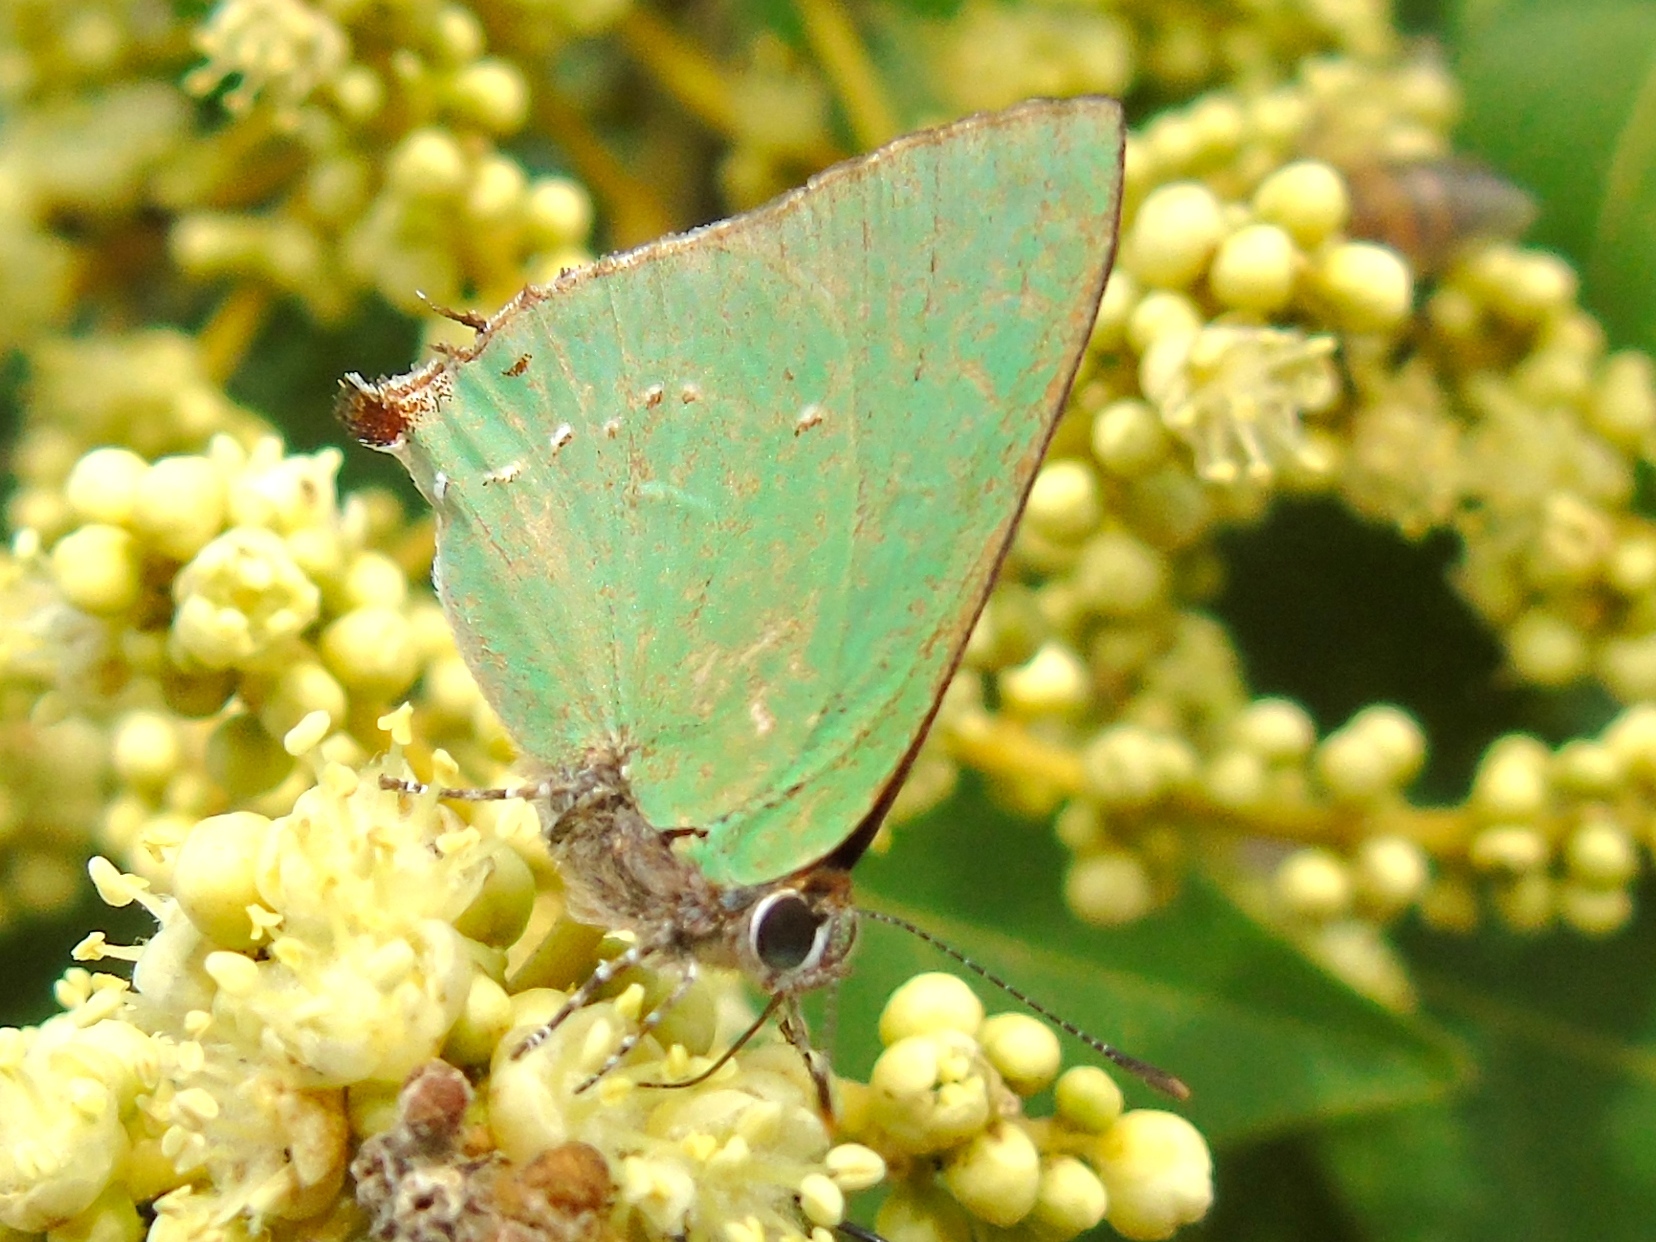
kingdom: Animalia
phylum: Arthropoda
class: Insecta
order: Lepidoptera
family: Lycaenidae
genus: Cyanophrys
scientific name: Cyanophrys
